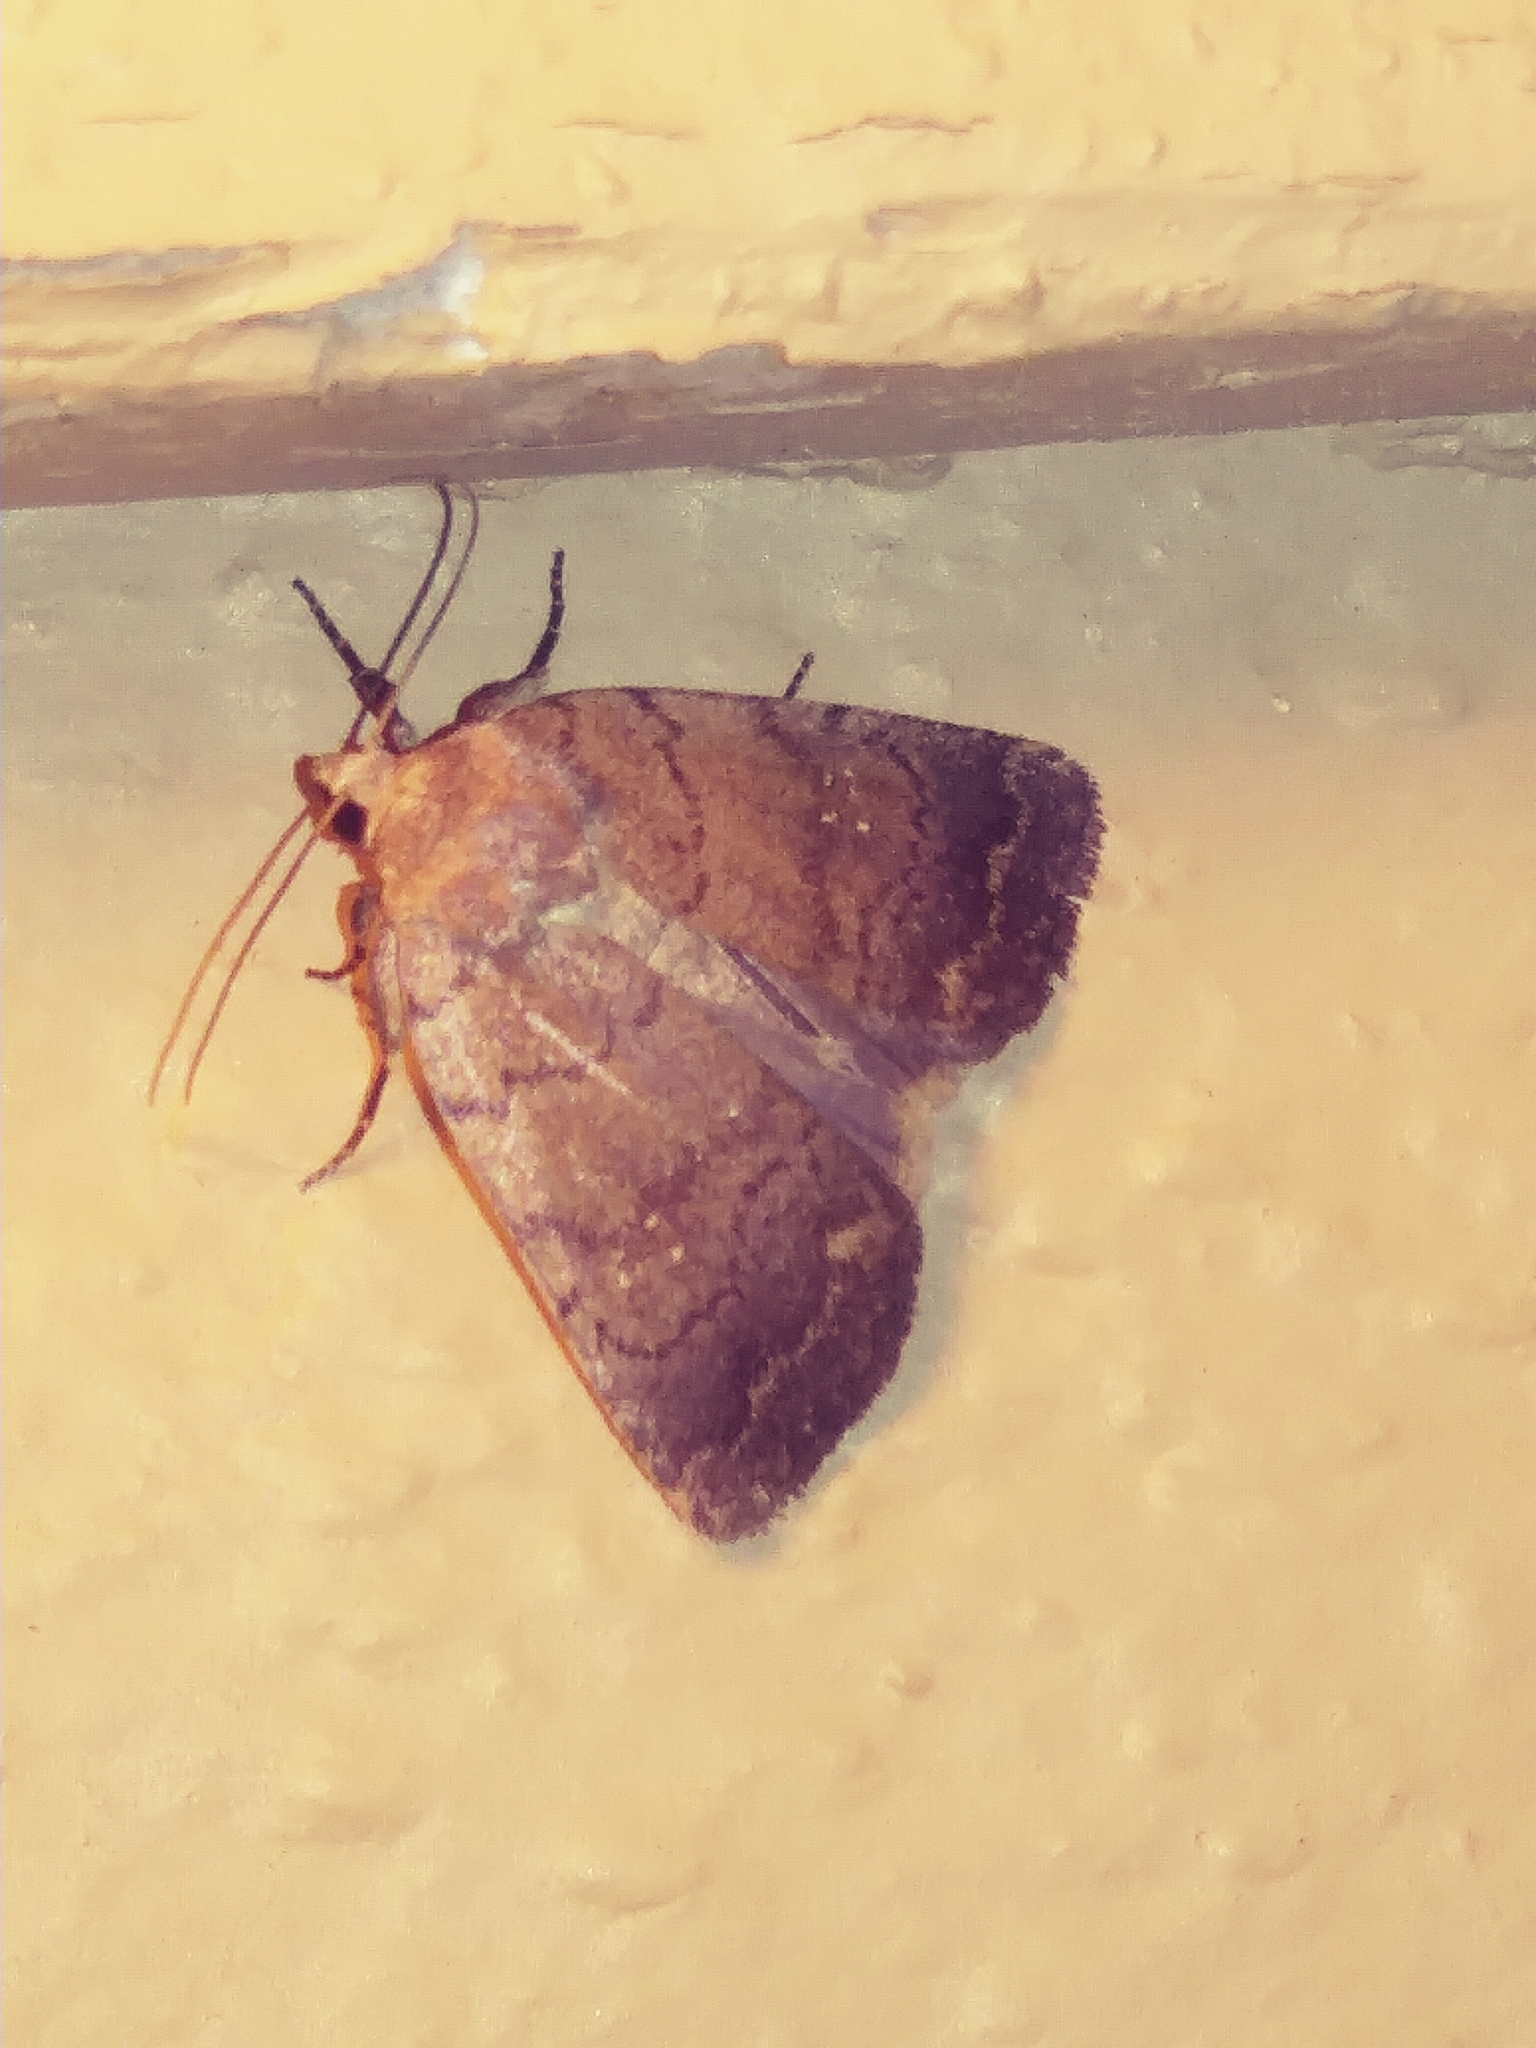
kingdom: Animalia
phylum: Arthropoda
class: Insecta
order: Lepidoptera
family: Noctuidae
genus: Athetis
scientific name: Athetis tarda
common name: Slowpoke moth
